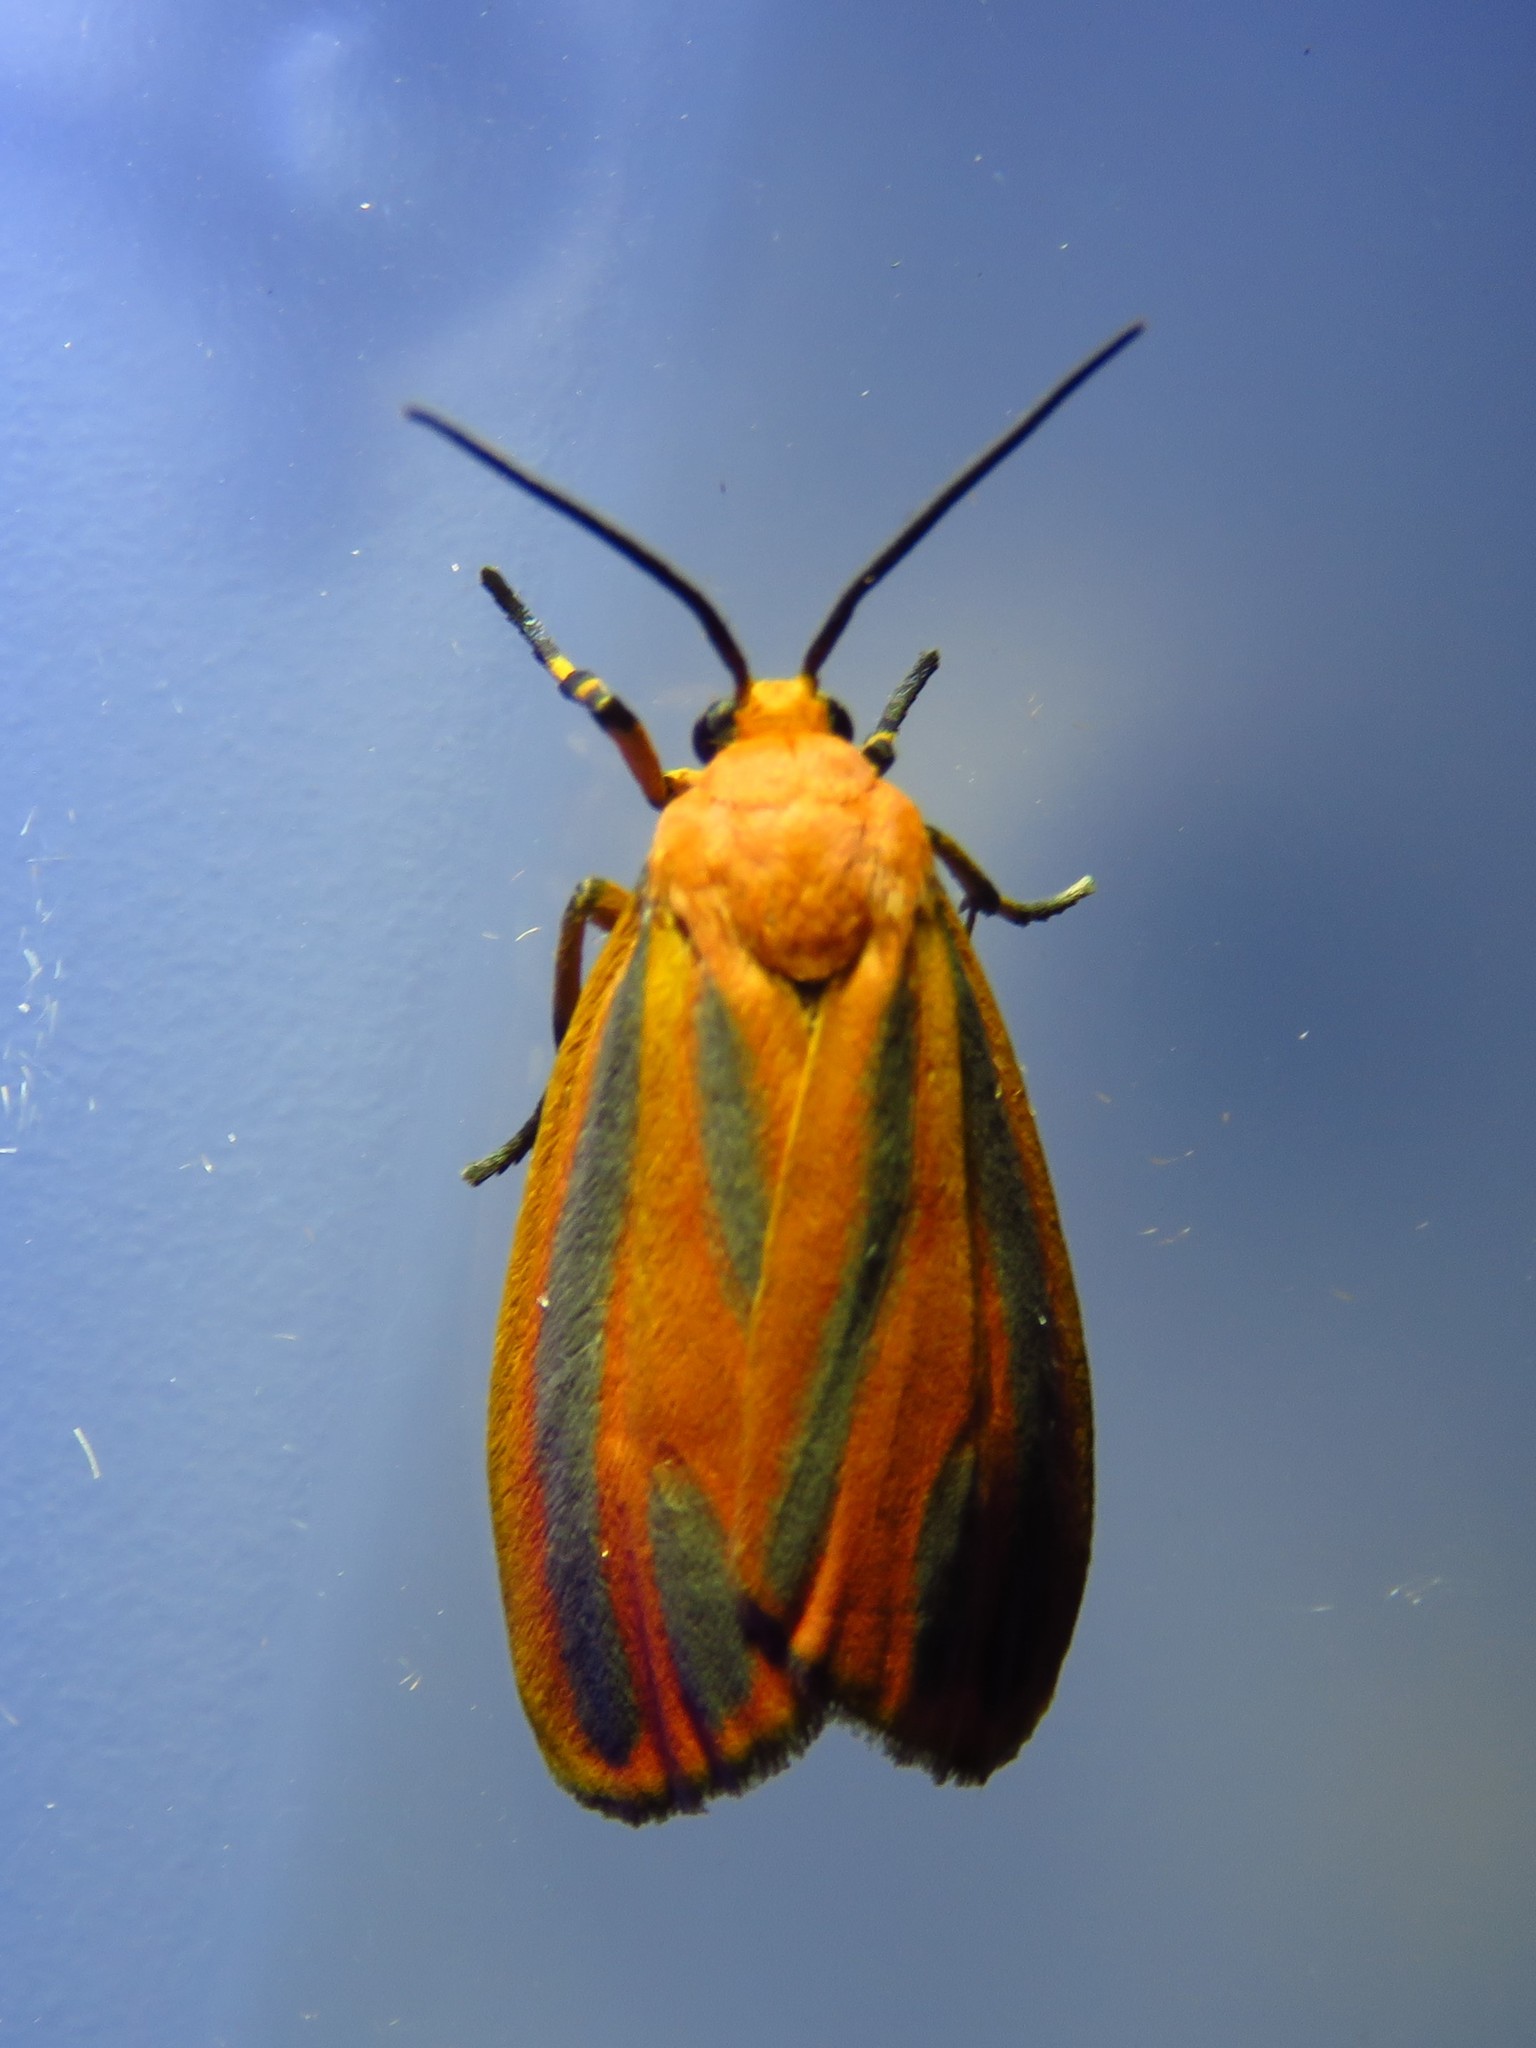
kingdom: Animalia
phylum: Arthropoda
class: Insecta
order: Lepidoptera
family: Erebidae
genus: Hypoprepia
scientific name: Hypoprepia fucosa
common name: Painted lichen moth
